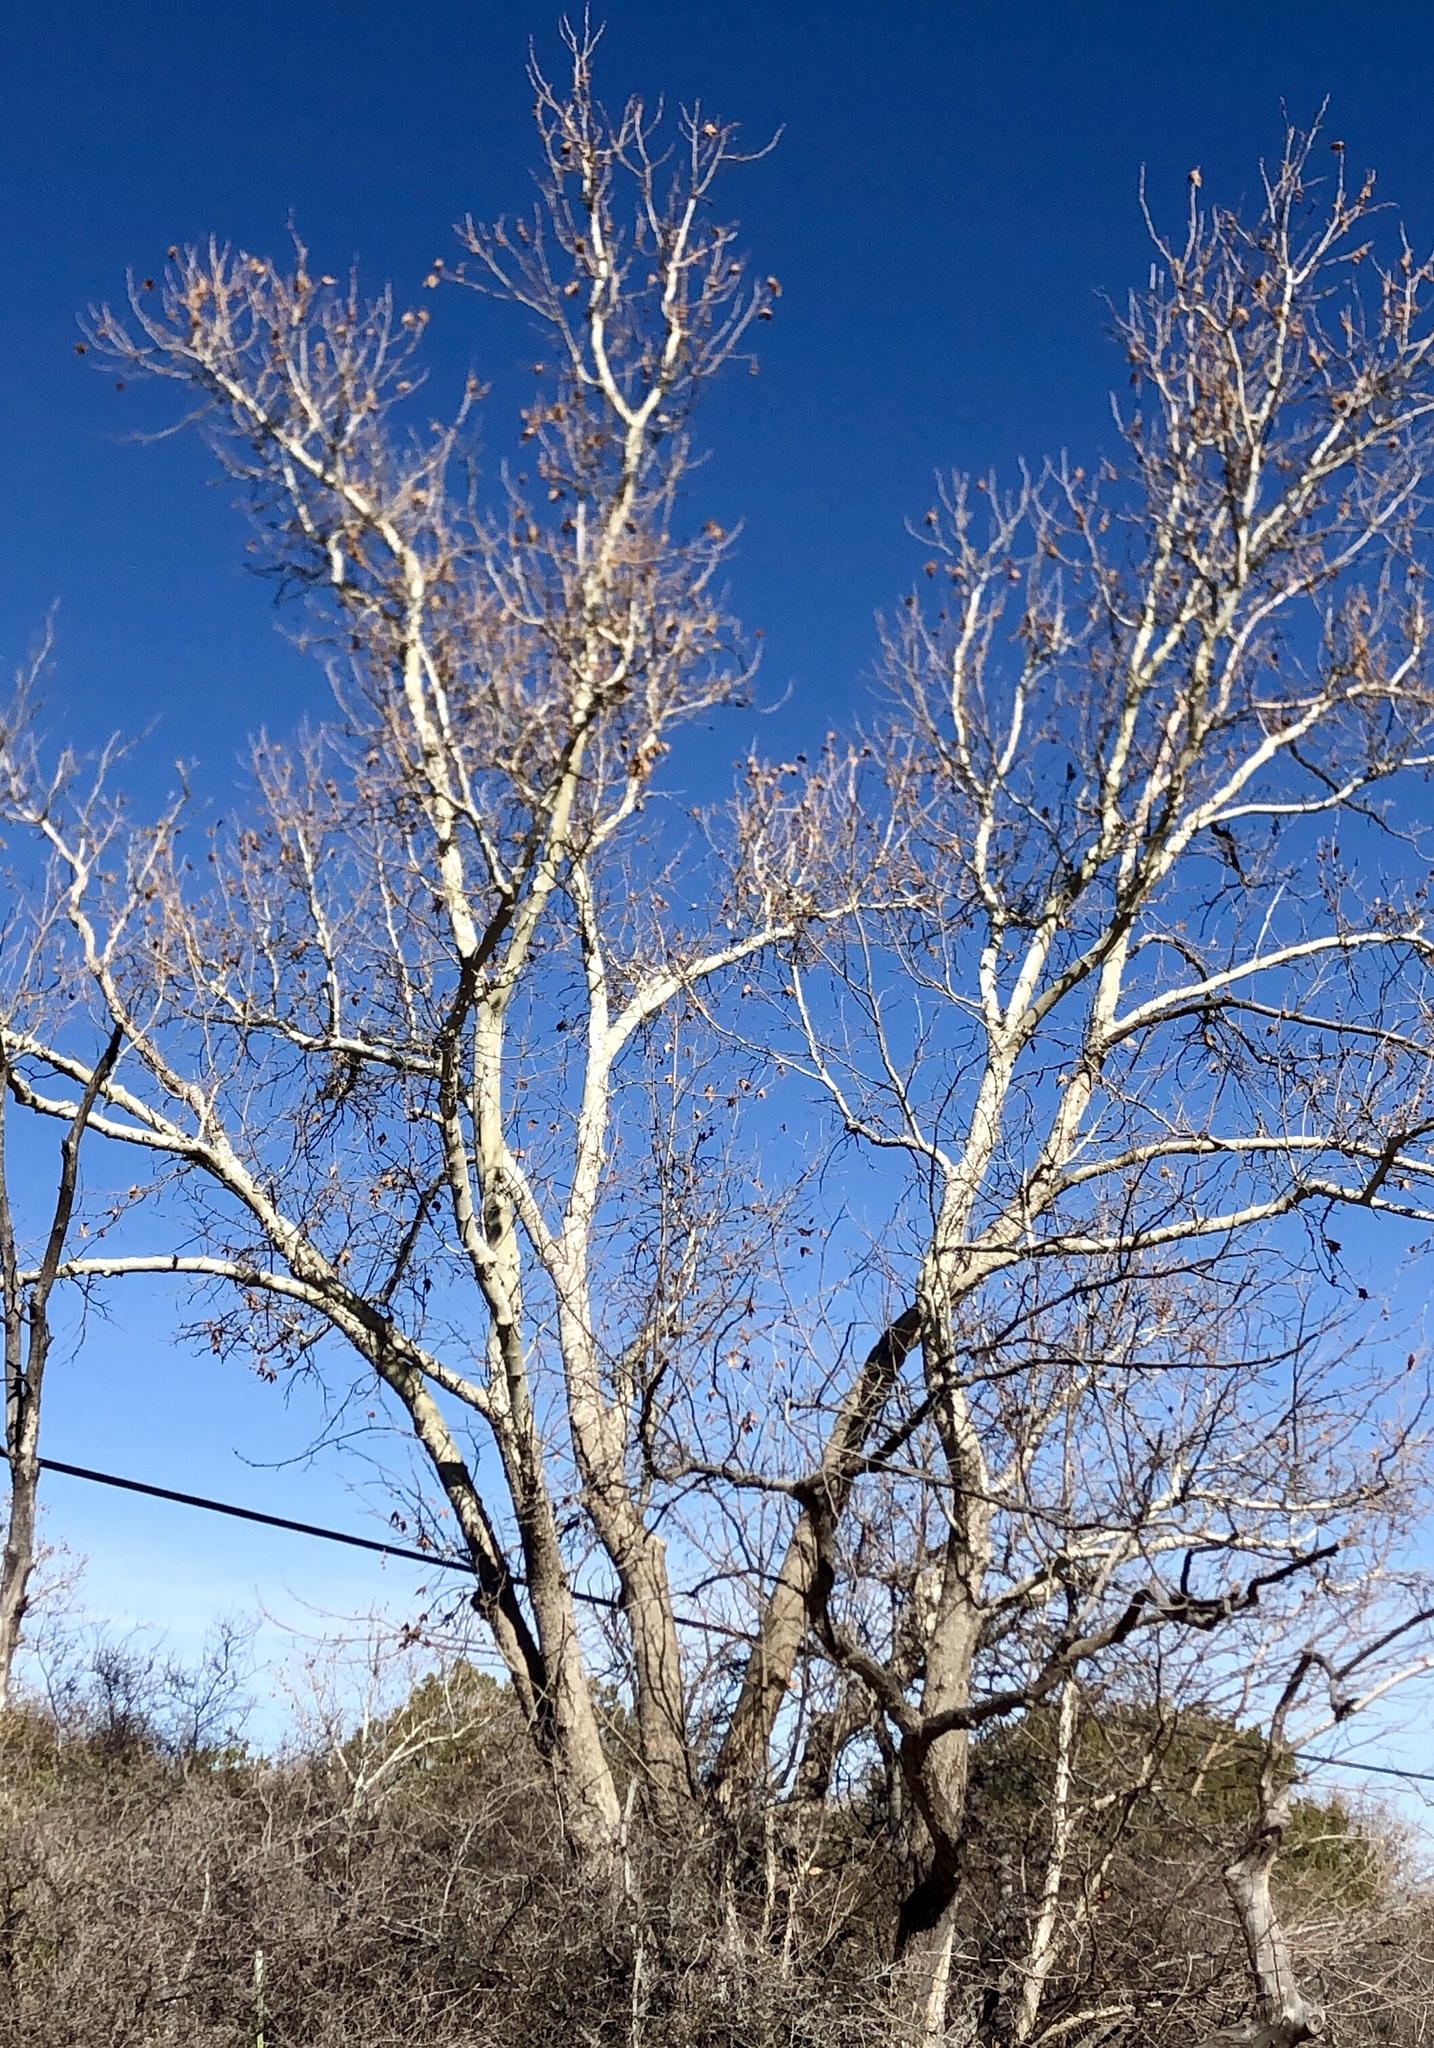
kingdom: Plantae
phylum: Tracheophyta
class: Magnoliopsida
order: Proteales
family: Platanaceae
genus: Platanus
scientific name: Platanus wrightii
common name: Arizona sycamore
